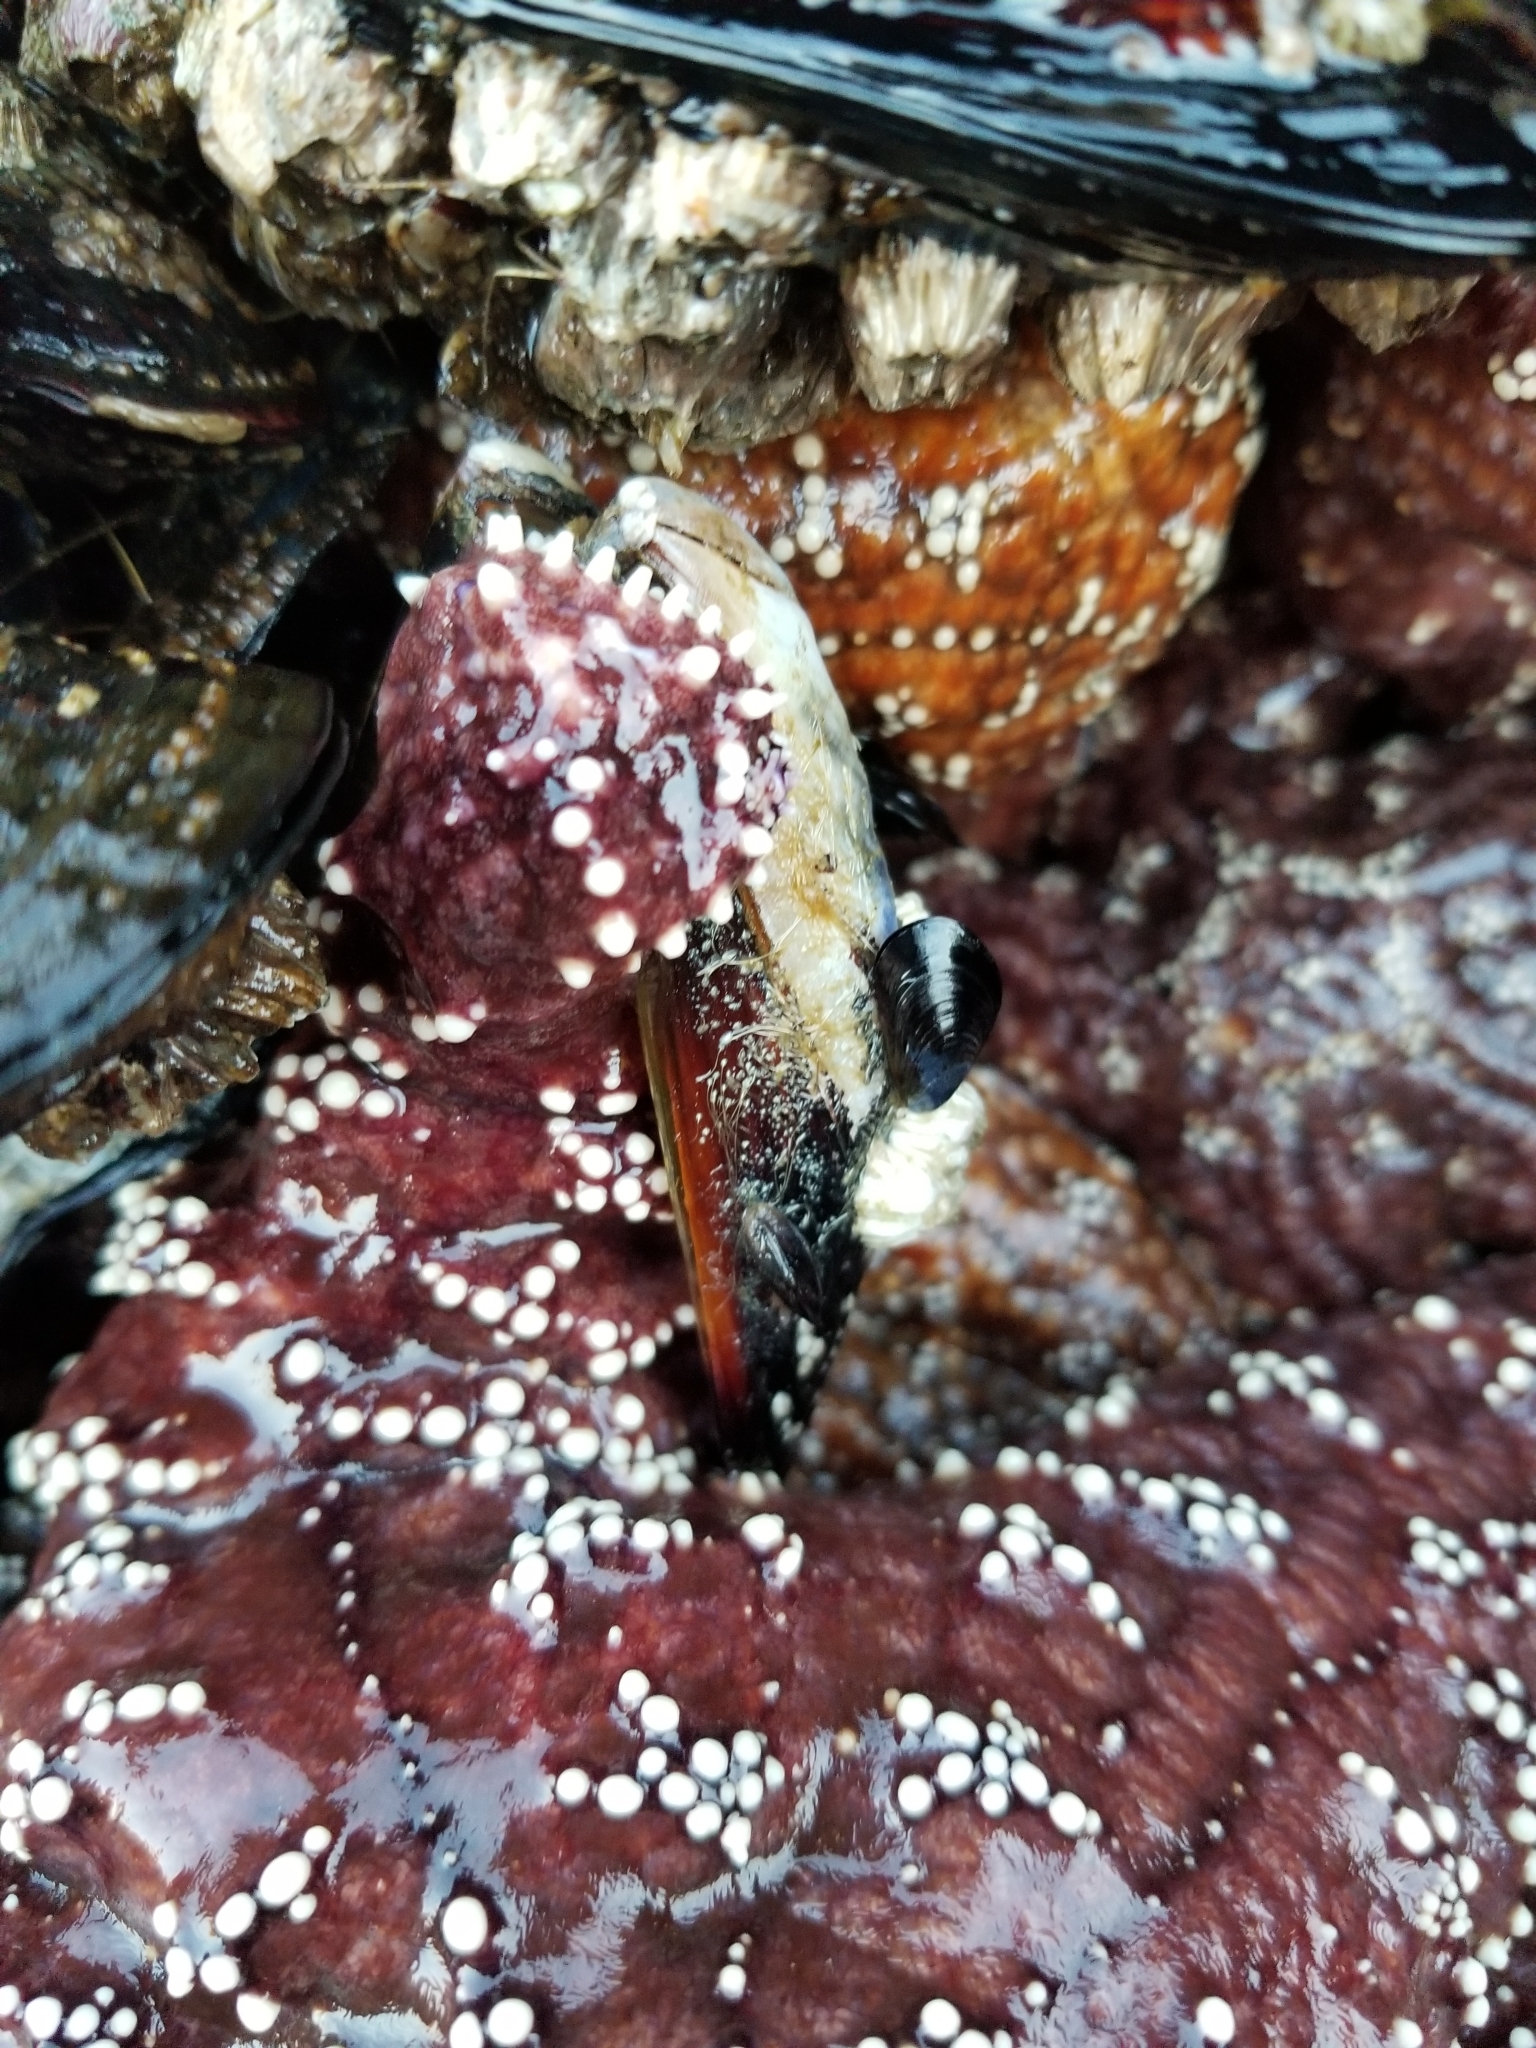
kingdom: Animalia
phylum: Echinodermata
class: Asteroidea
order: Forcipulatida
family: Asteriidae
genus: Pisaster
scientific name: Pisaster ochraceus
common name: Ochre stars
